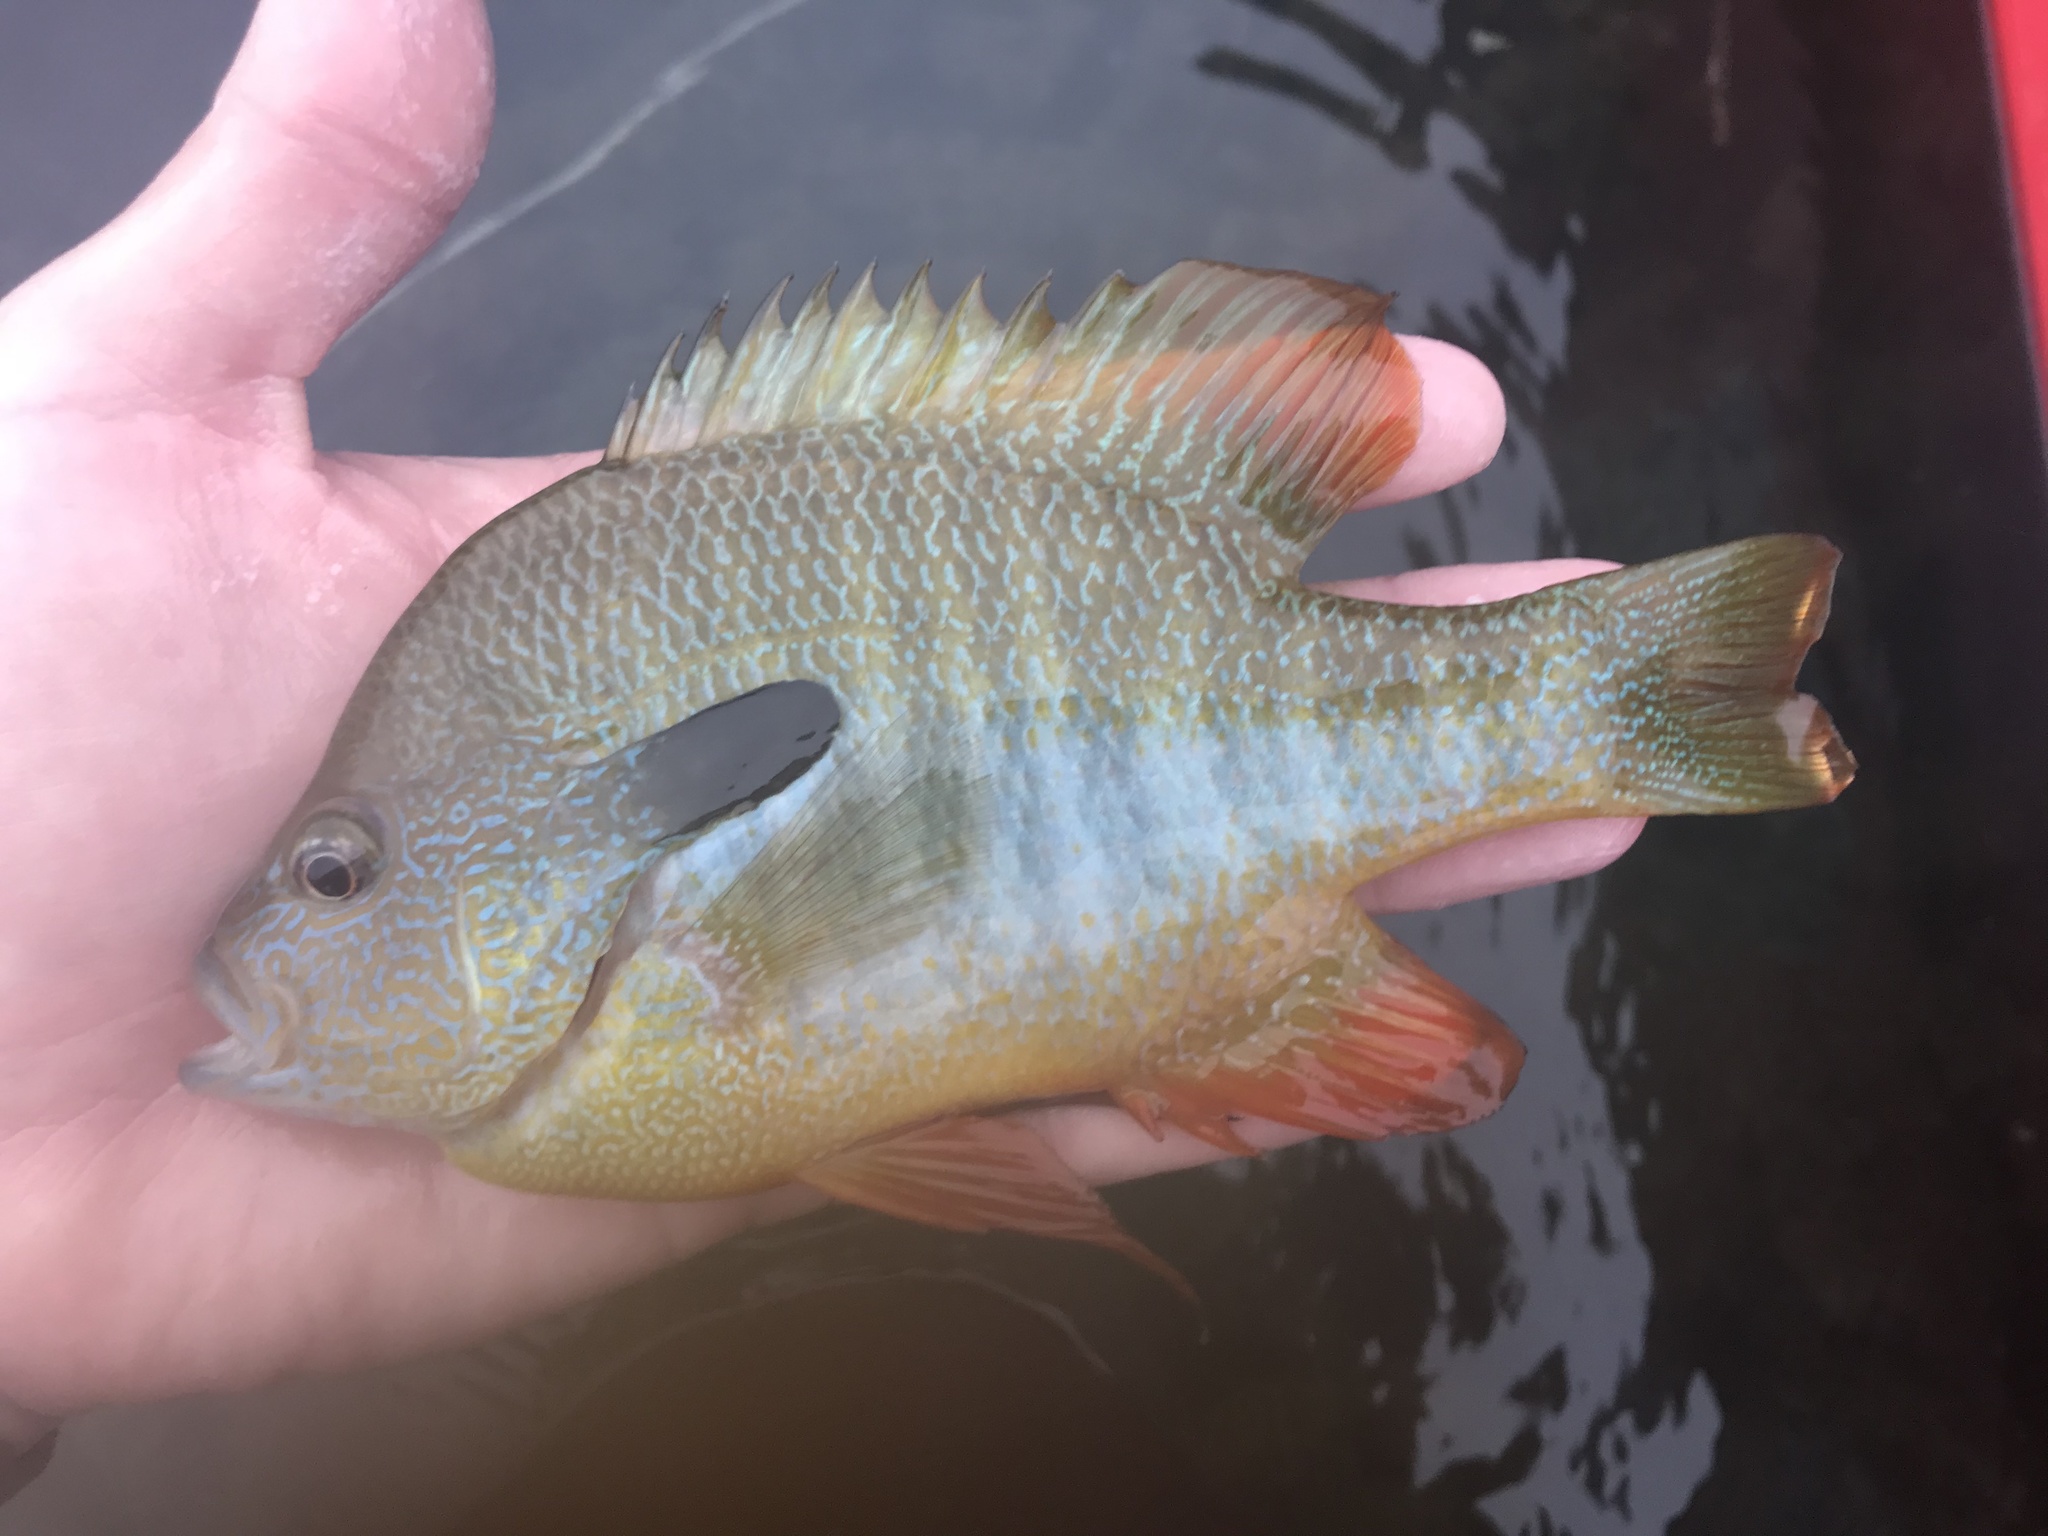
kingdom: Animalia
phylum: Chordata
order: Perciformes
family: Centrarchidae
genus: Lepomis
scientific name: Lepomis megalotis
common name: Longear sunfish
